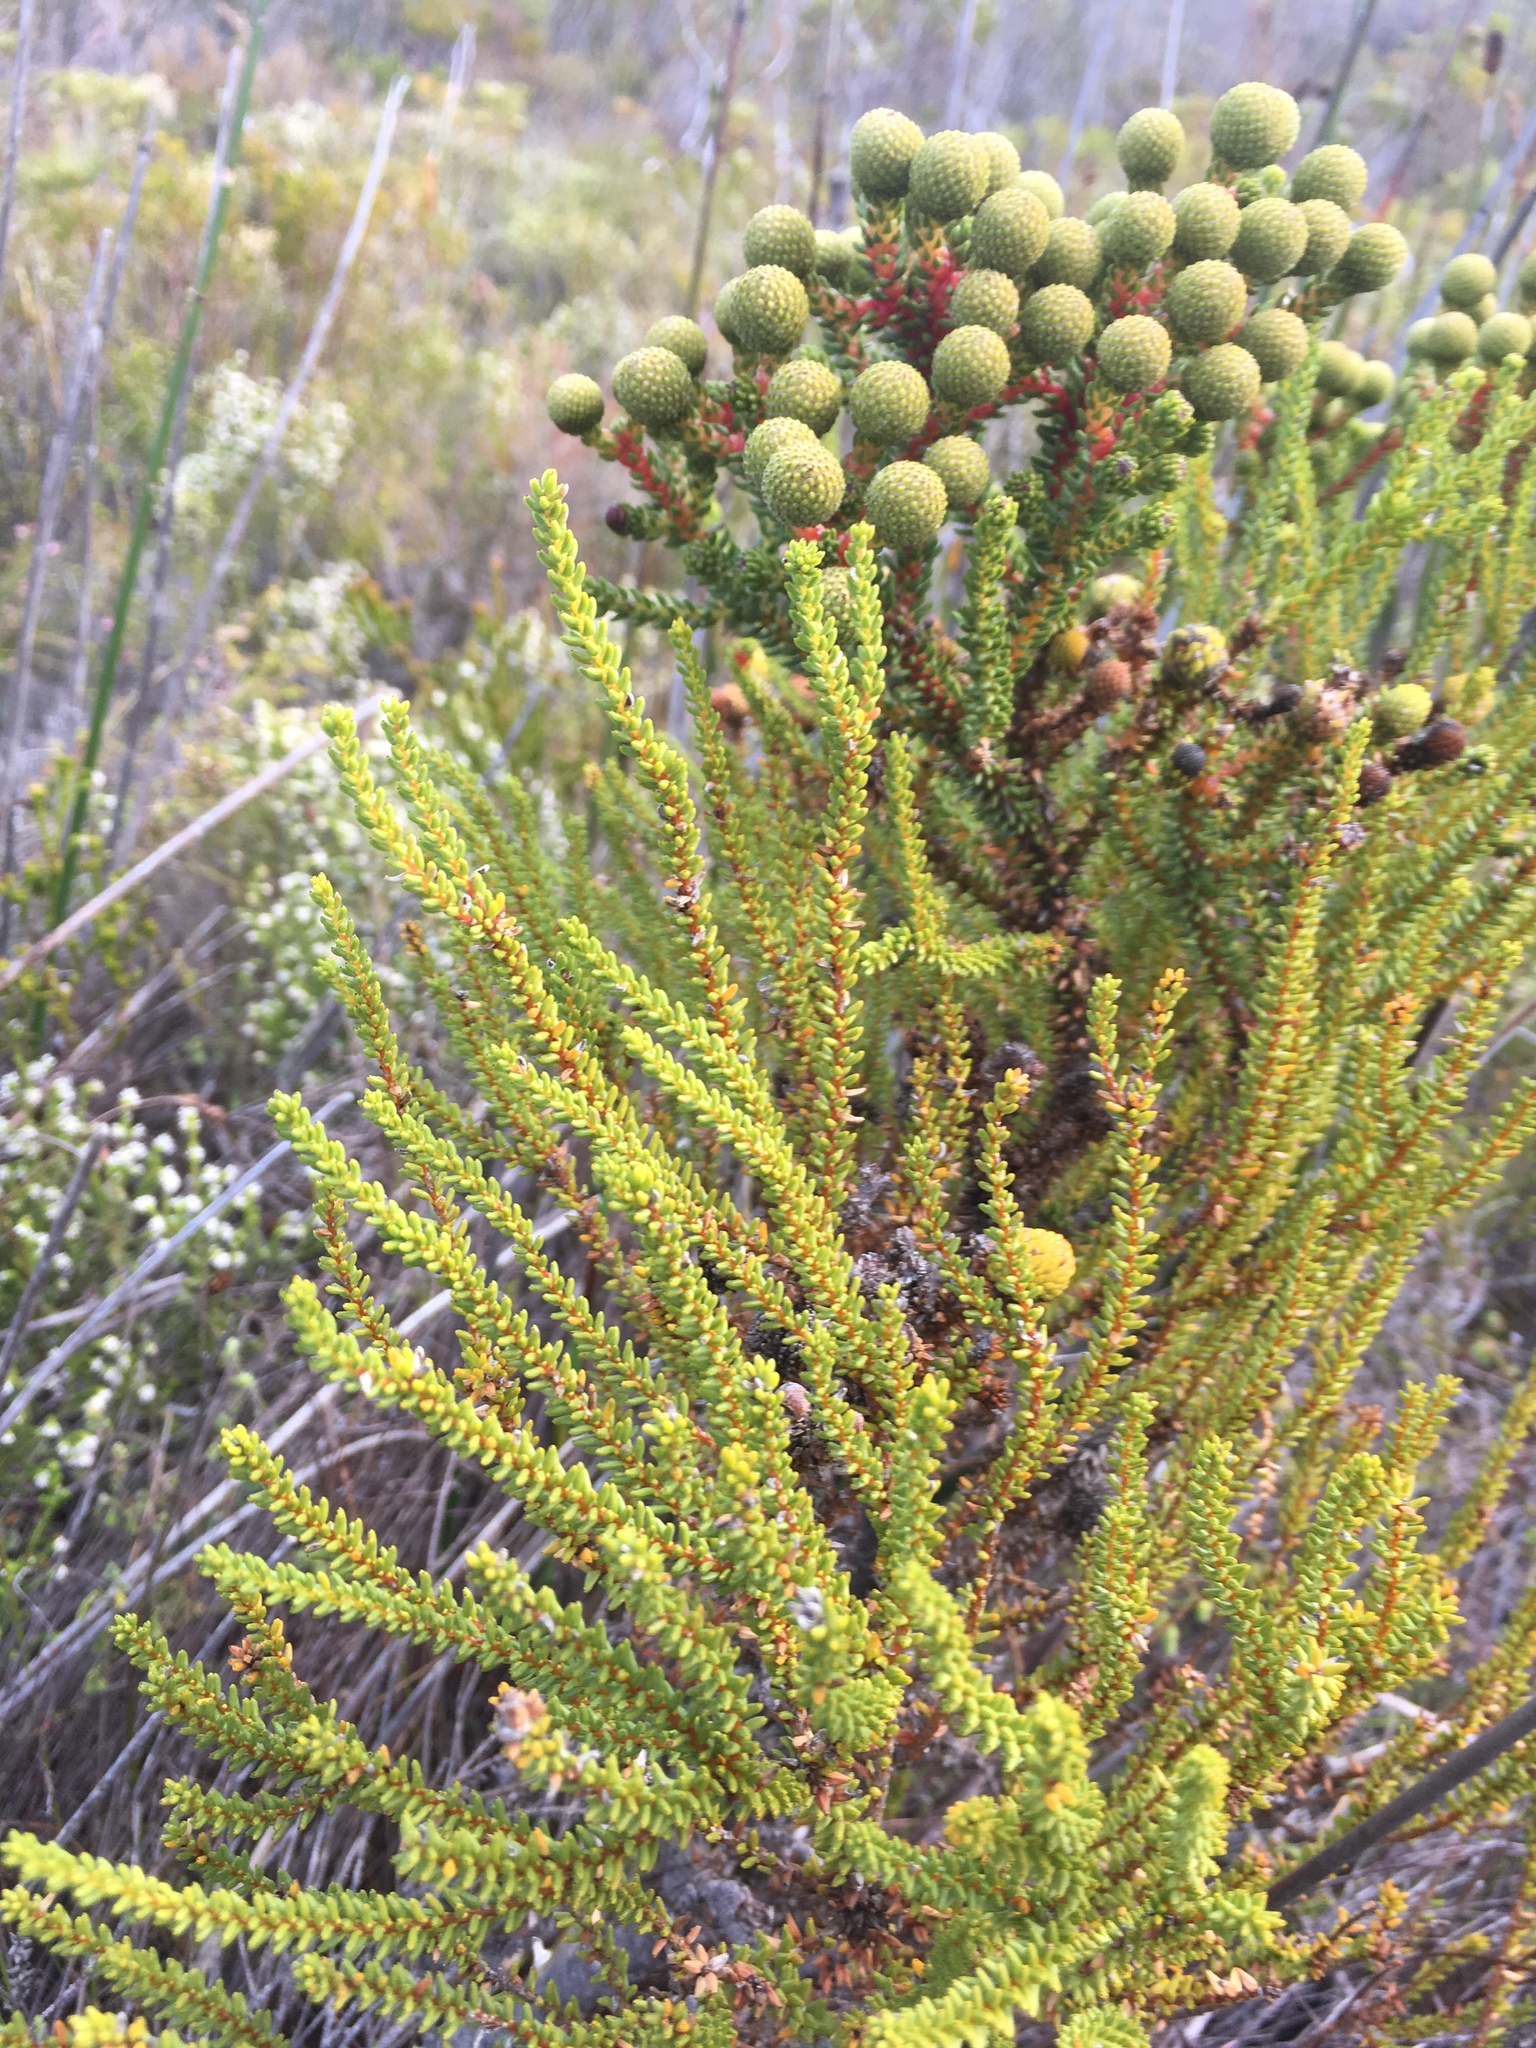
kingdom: Plantae
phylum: Tracheophyta
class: Magnoliopsida
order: Bruniales
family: Bruniaceae
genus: Berzelia
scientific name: Berzelia abrotanoides
